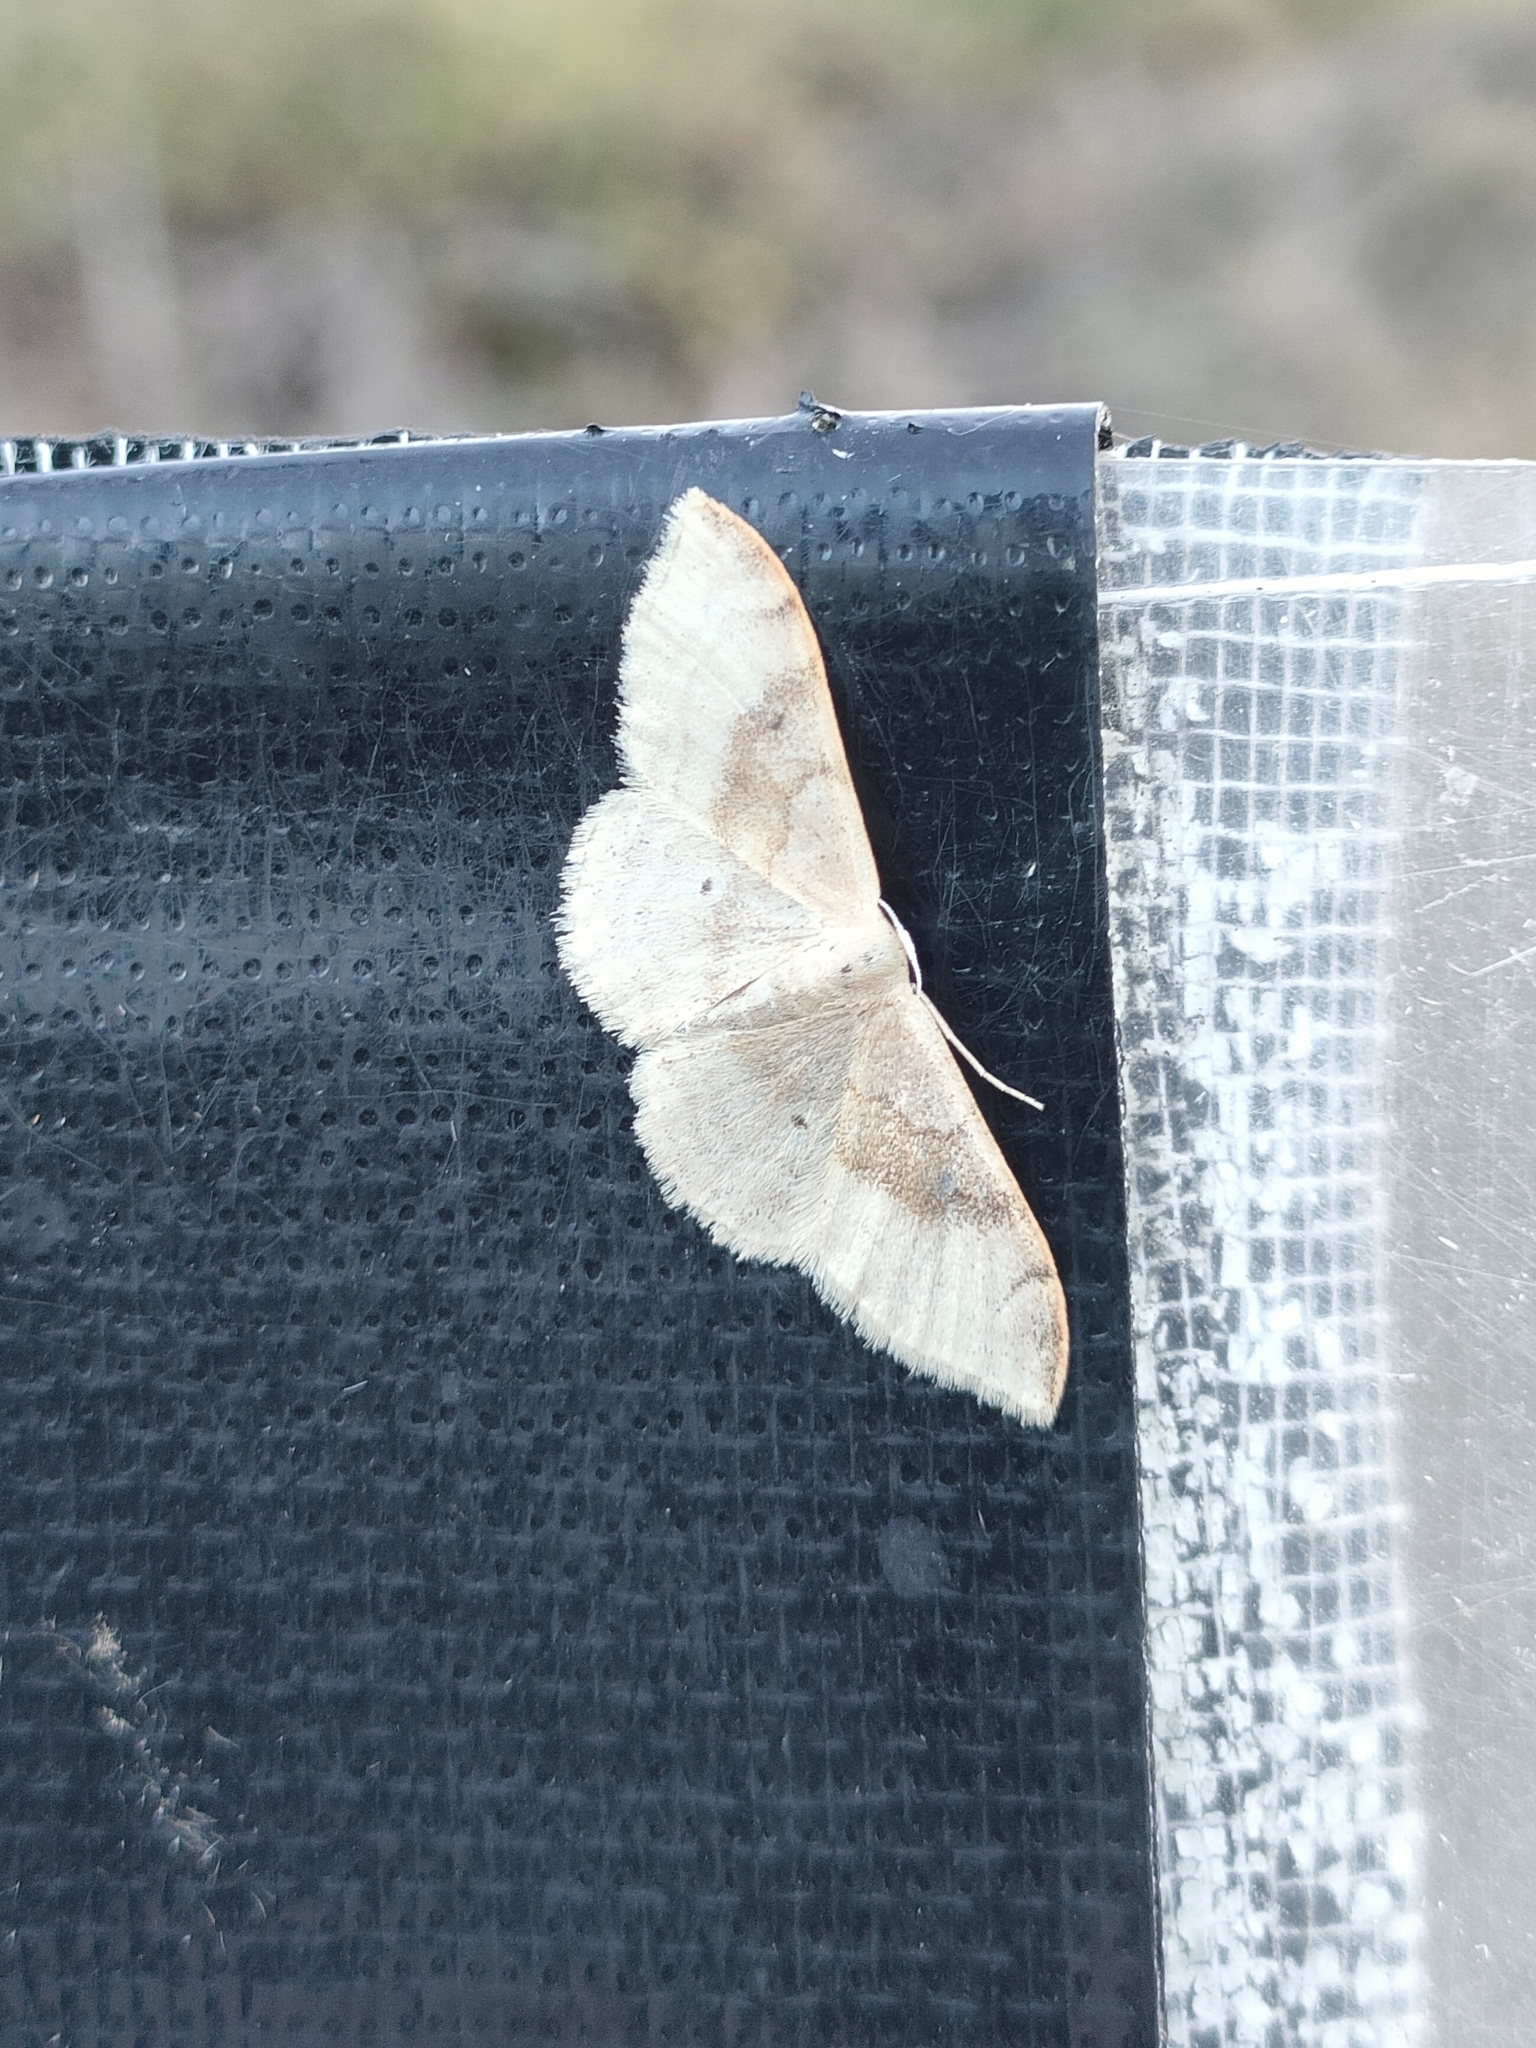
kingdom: Animalia
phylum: Arthropoda
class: Insecta
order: Lepidoptera
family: Geometridae
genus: Idaea
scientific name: Idaea degeneraria
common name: Portland ribbon wave
